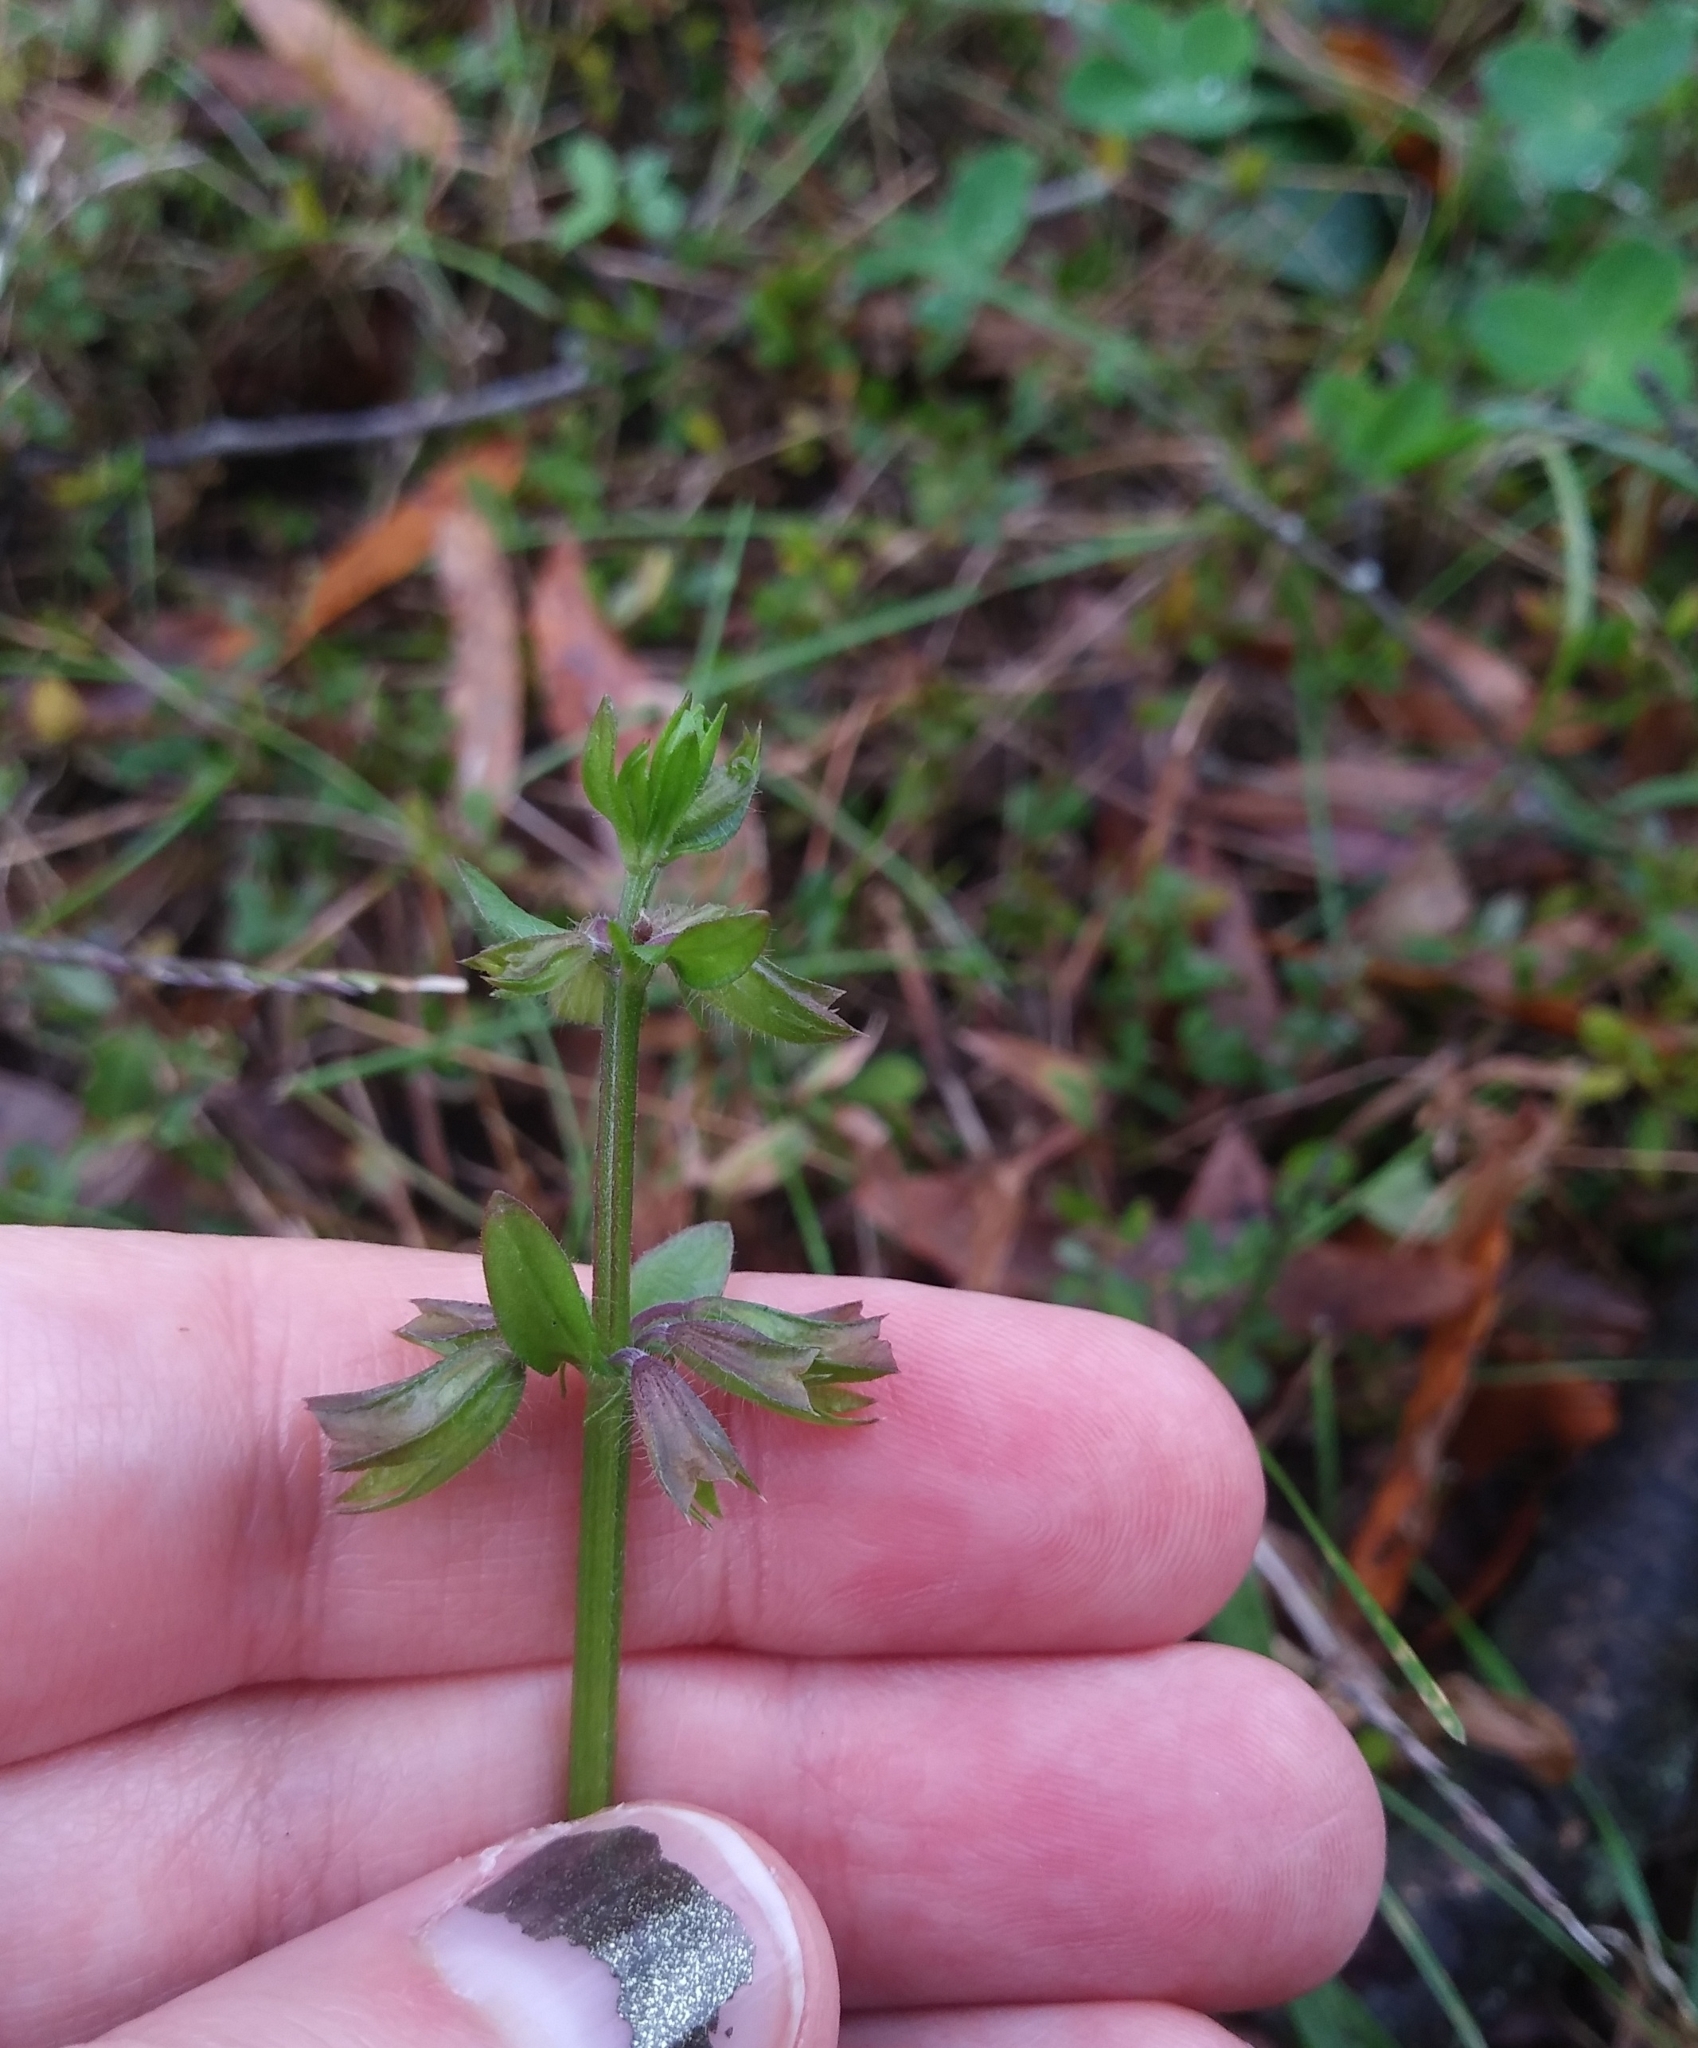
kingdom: Plantae
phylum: Tracheophyta
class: Magnoliopsida
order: Lamiales
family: Lamiaceae
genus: Salvia
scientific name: Salvia lyrata
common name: Cancerweed
